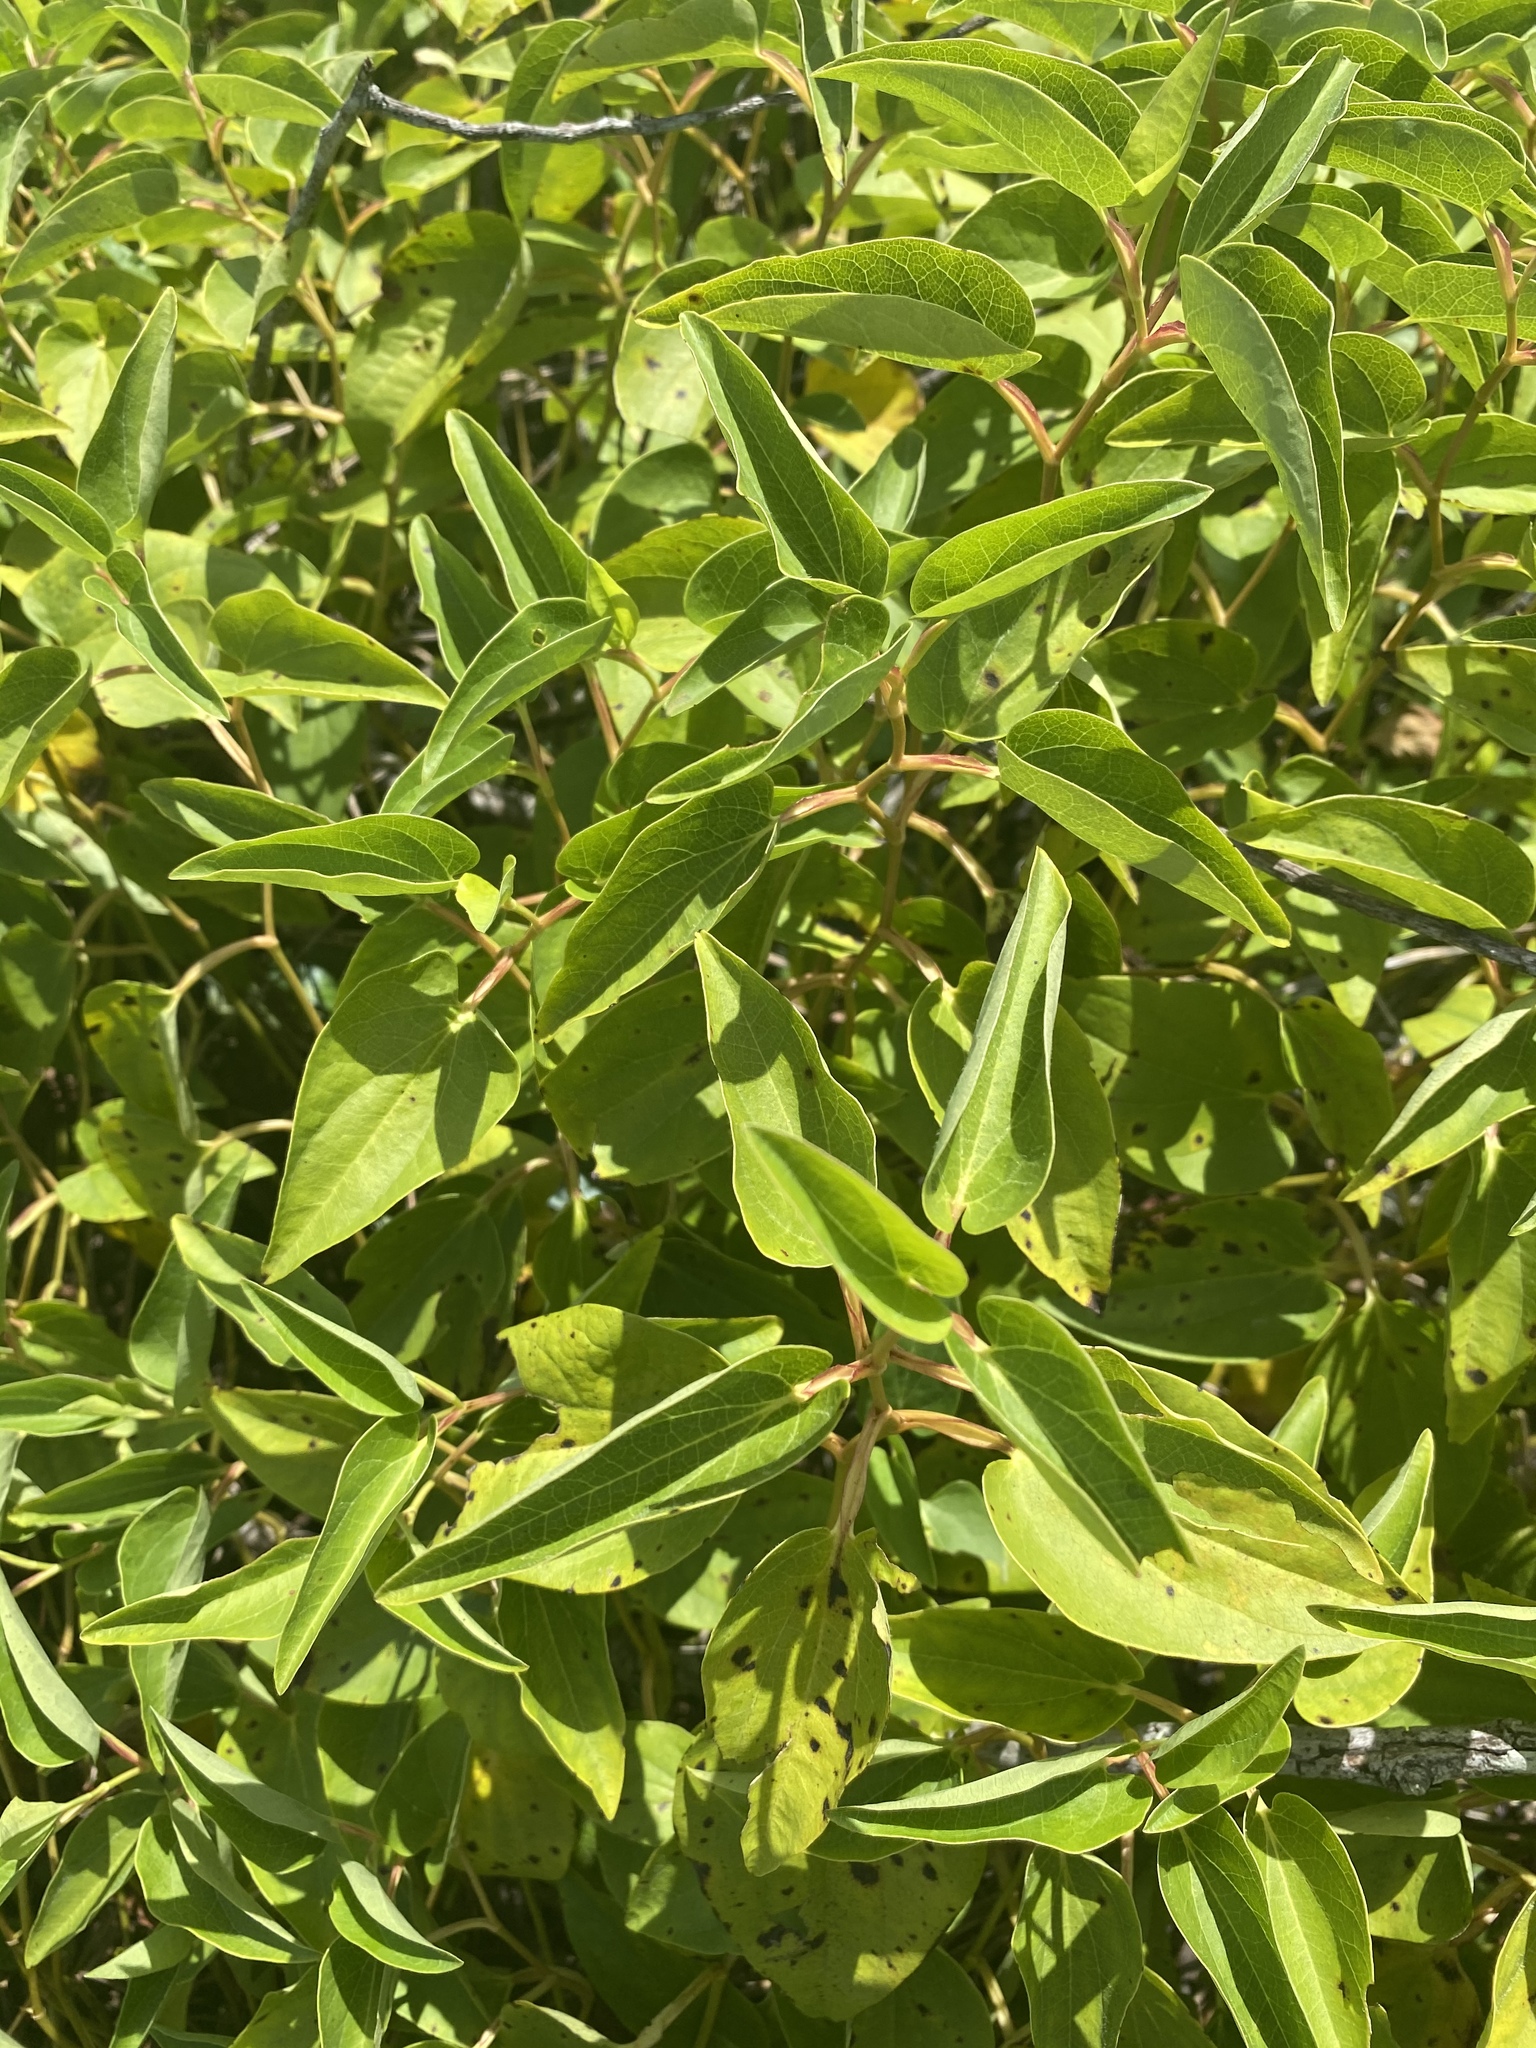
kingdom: Plantae
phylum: Tracheophyta
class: Magnoliopsida
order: Piperales
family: Saururaceae
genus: Saururus
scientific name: Saururus cernuus
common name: Lizard's-tail
